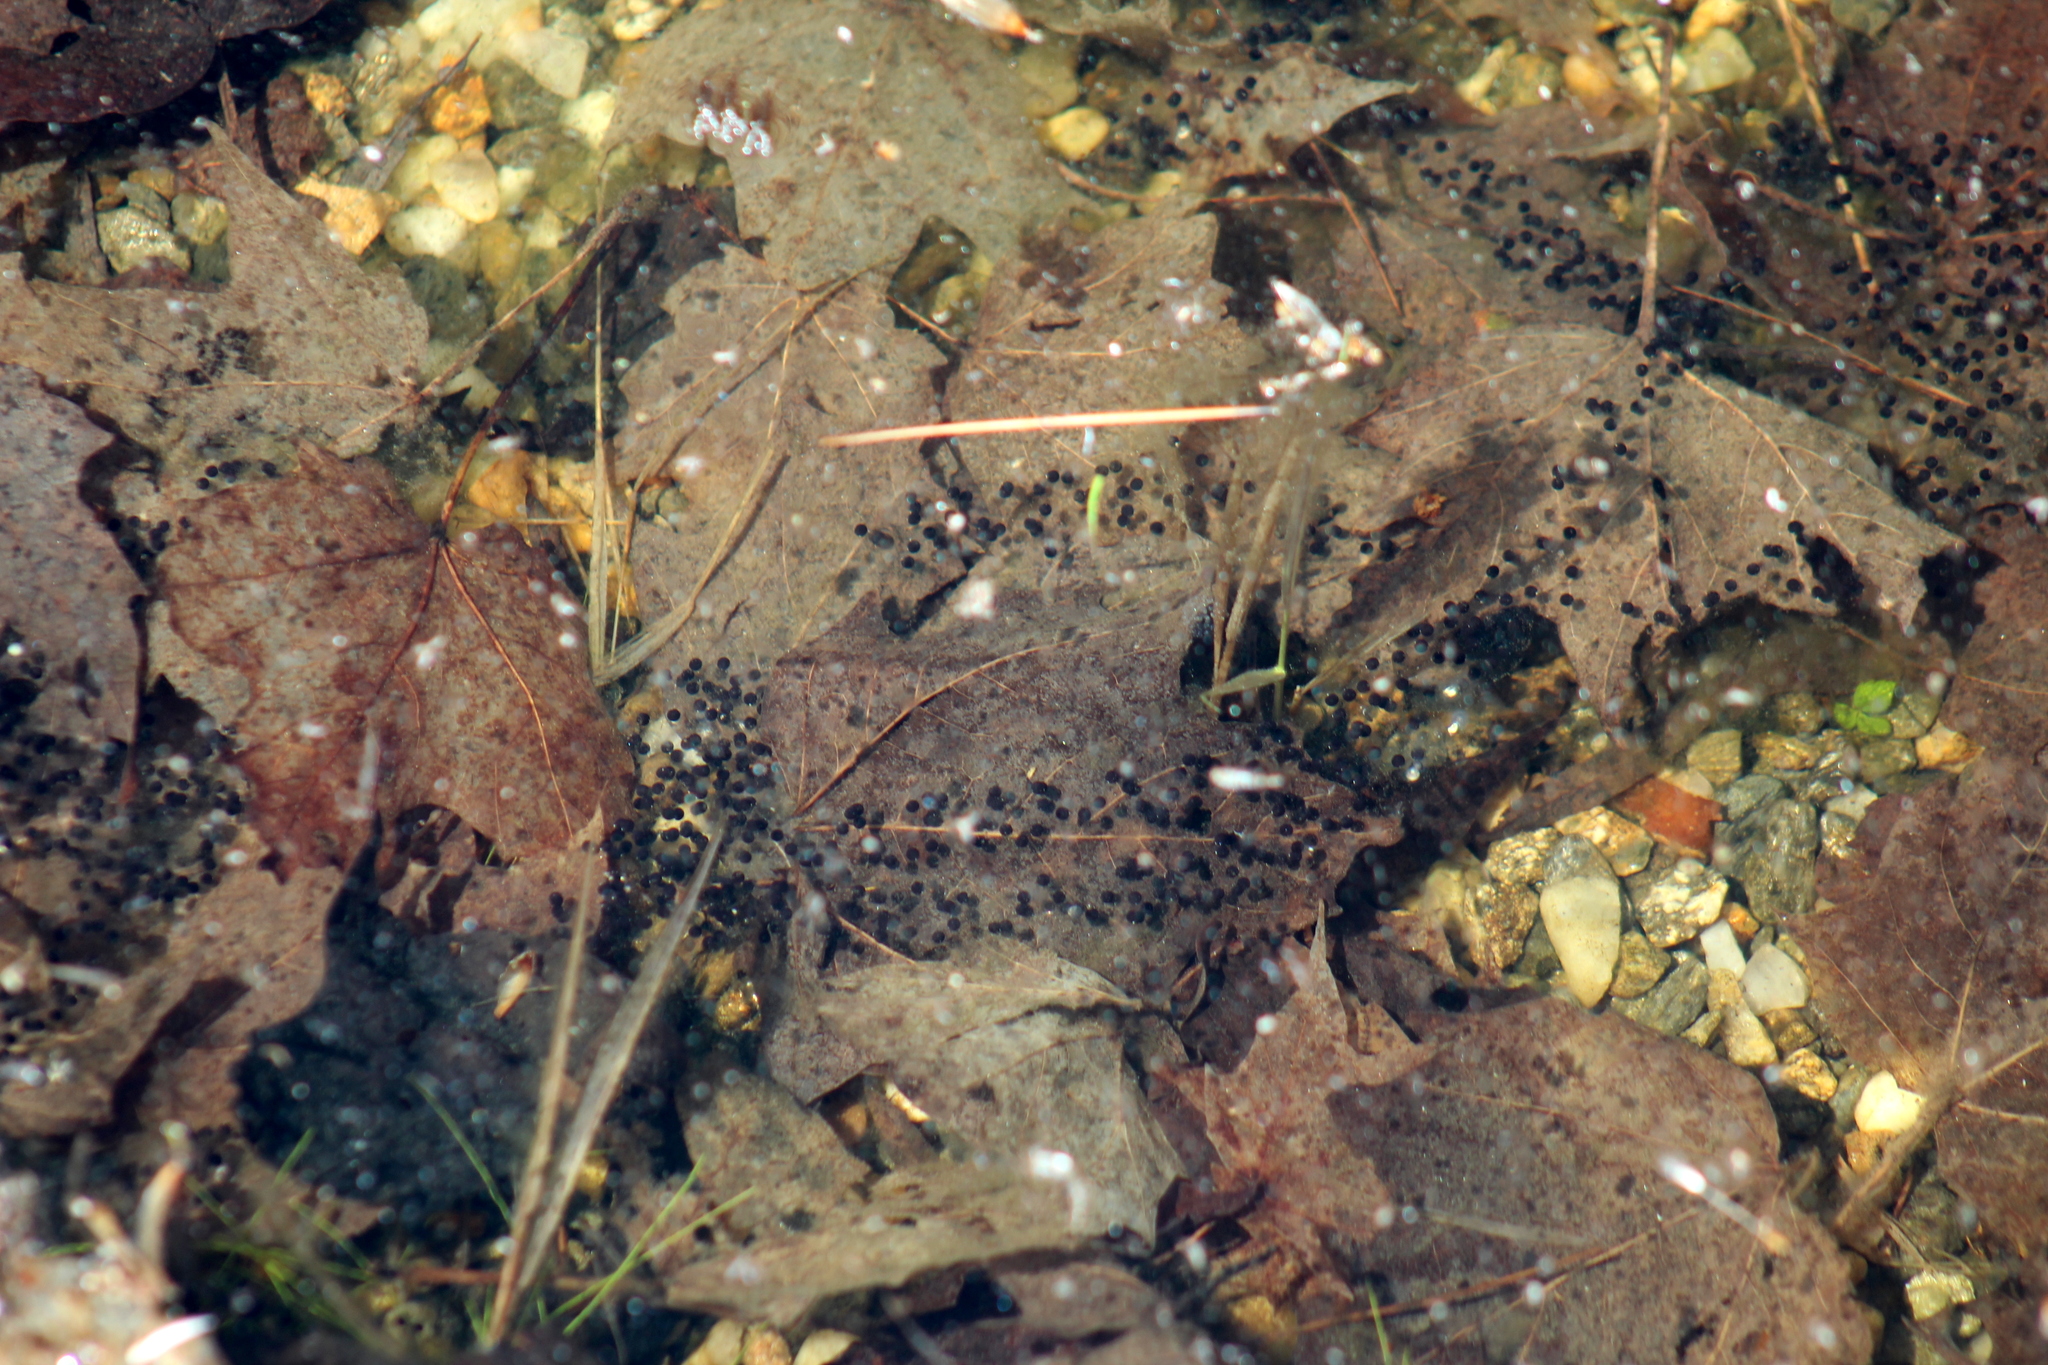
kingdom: Animalia
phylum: Chordata
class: Amphibia
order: Anura
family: Bufonidae
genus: Anaxyrus
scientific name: Anaxyrus americanus
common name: American toad
